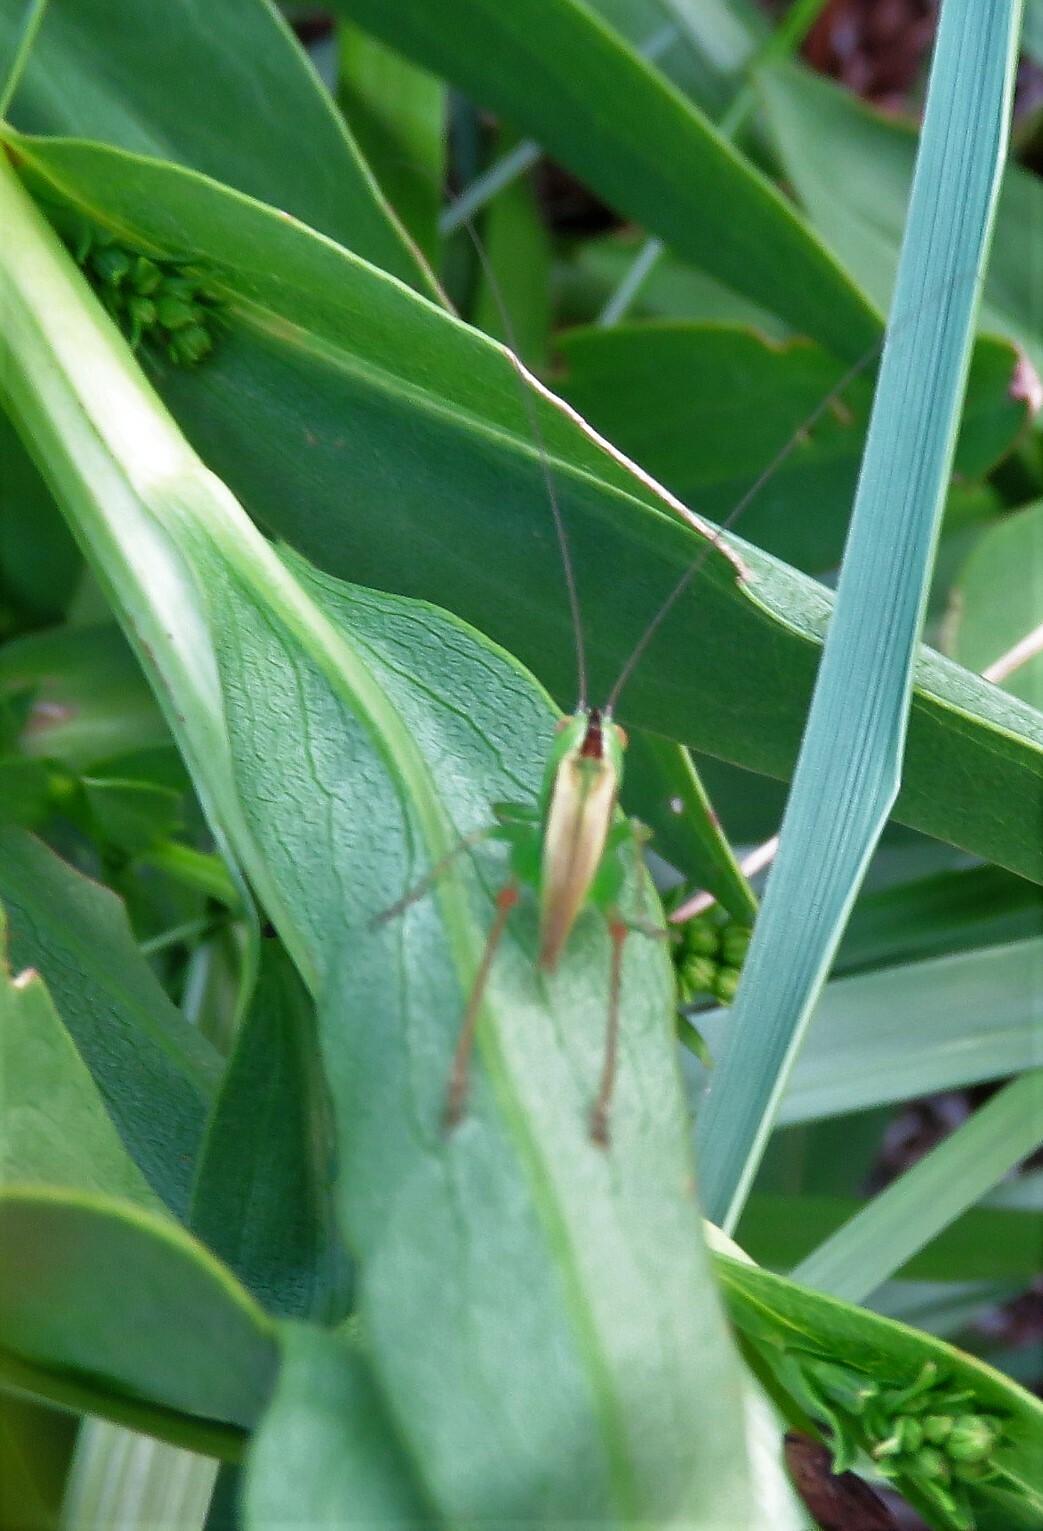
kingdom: Animalia
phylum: Arthropoda
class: Insecta
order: Orthoptera
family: Tettigoniidae
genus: Conocephalus
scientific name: Conocephalus fasciatus
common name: Slender meadow katydid
